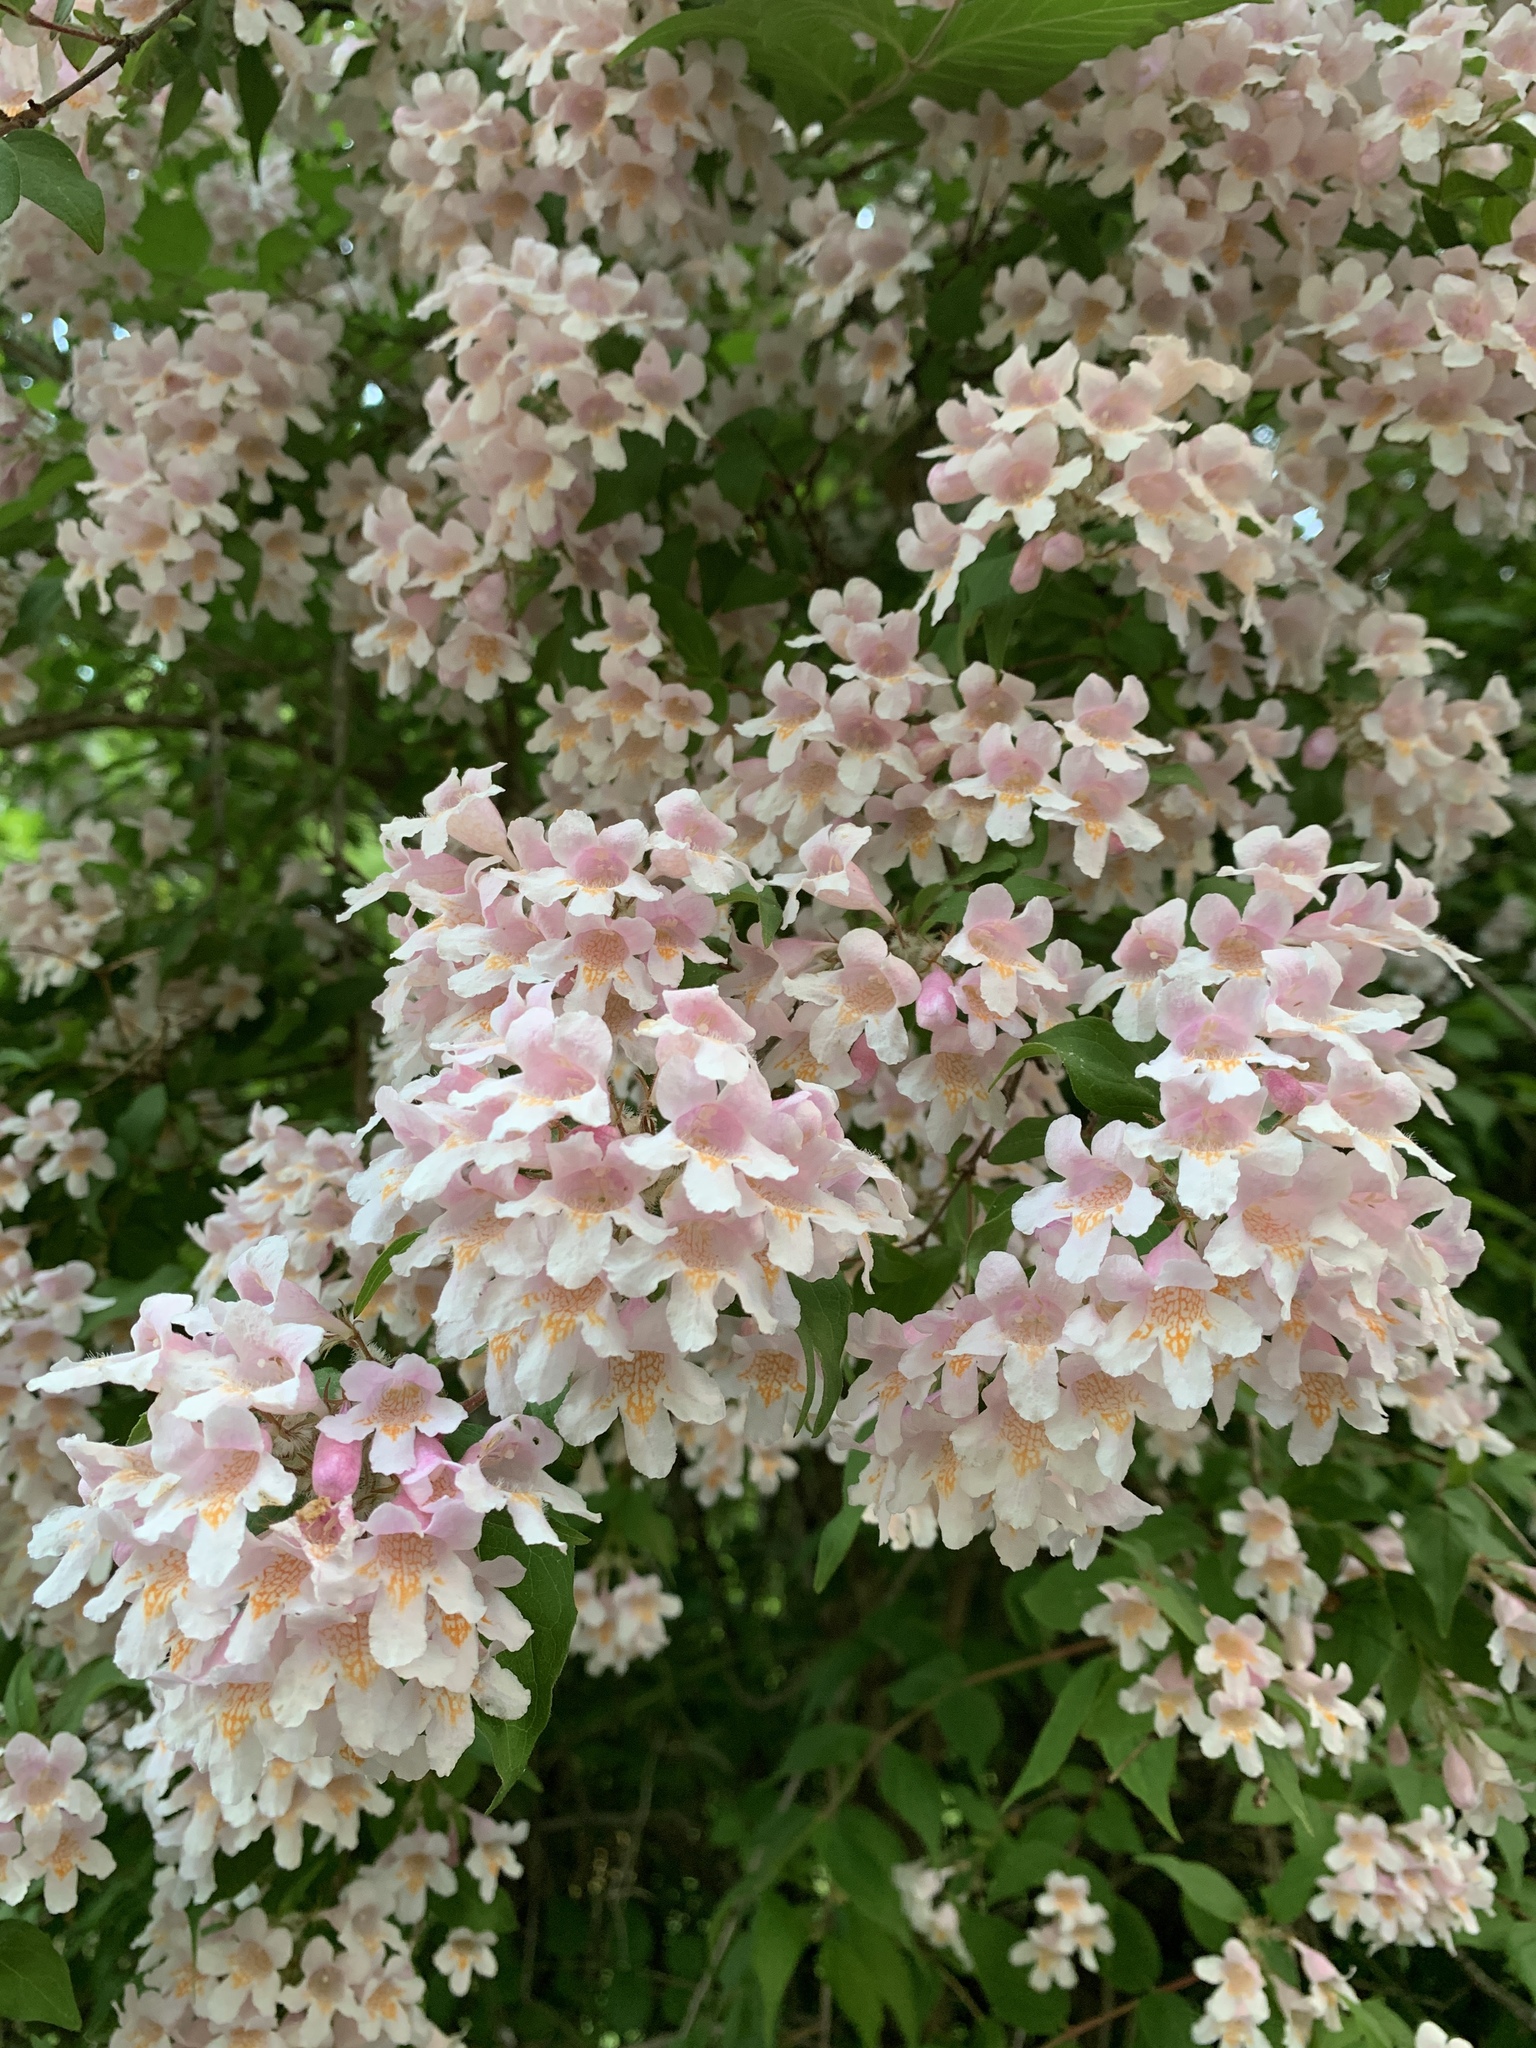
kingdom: Plantae
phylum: Tracheophyta
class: Magnoliopsida
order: Dipsacales
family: Caprifoliaceae
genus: Kolkwitzia
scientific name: Kolkwitzia amabilis
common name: Beautybush
